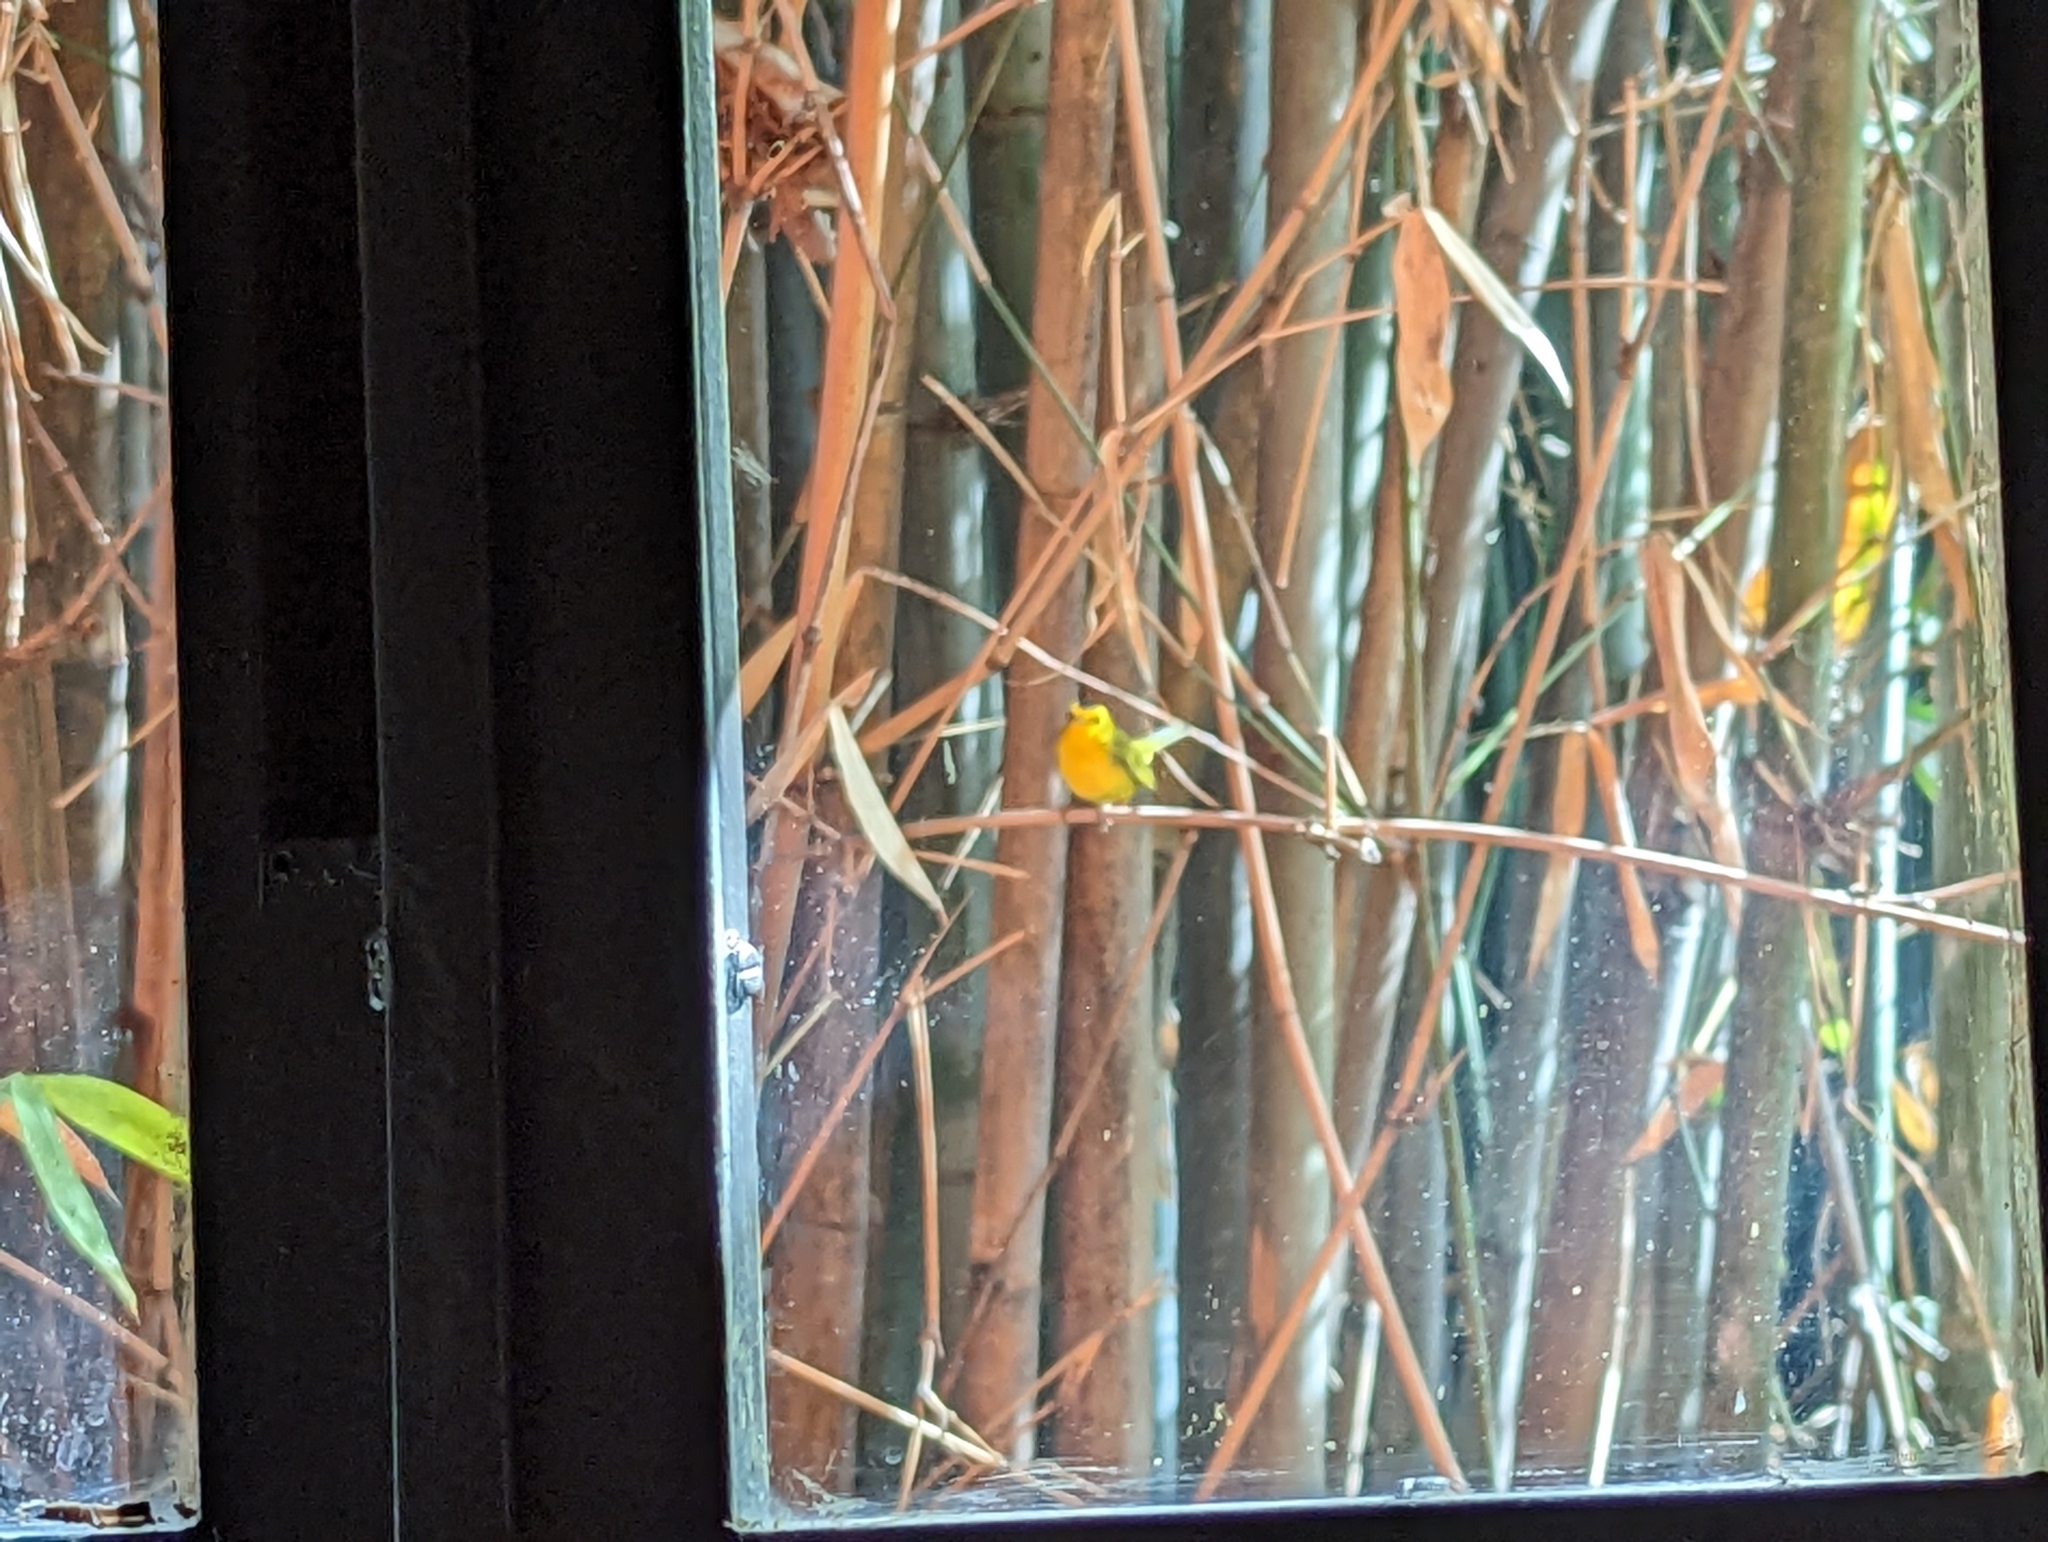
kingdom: Animalia
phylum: Chordata
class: Aves
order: Passeriformes
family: Parulidae
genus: Cardellina
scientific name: Cardellina pusilla
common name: Wilson's warbler
